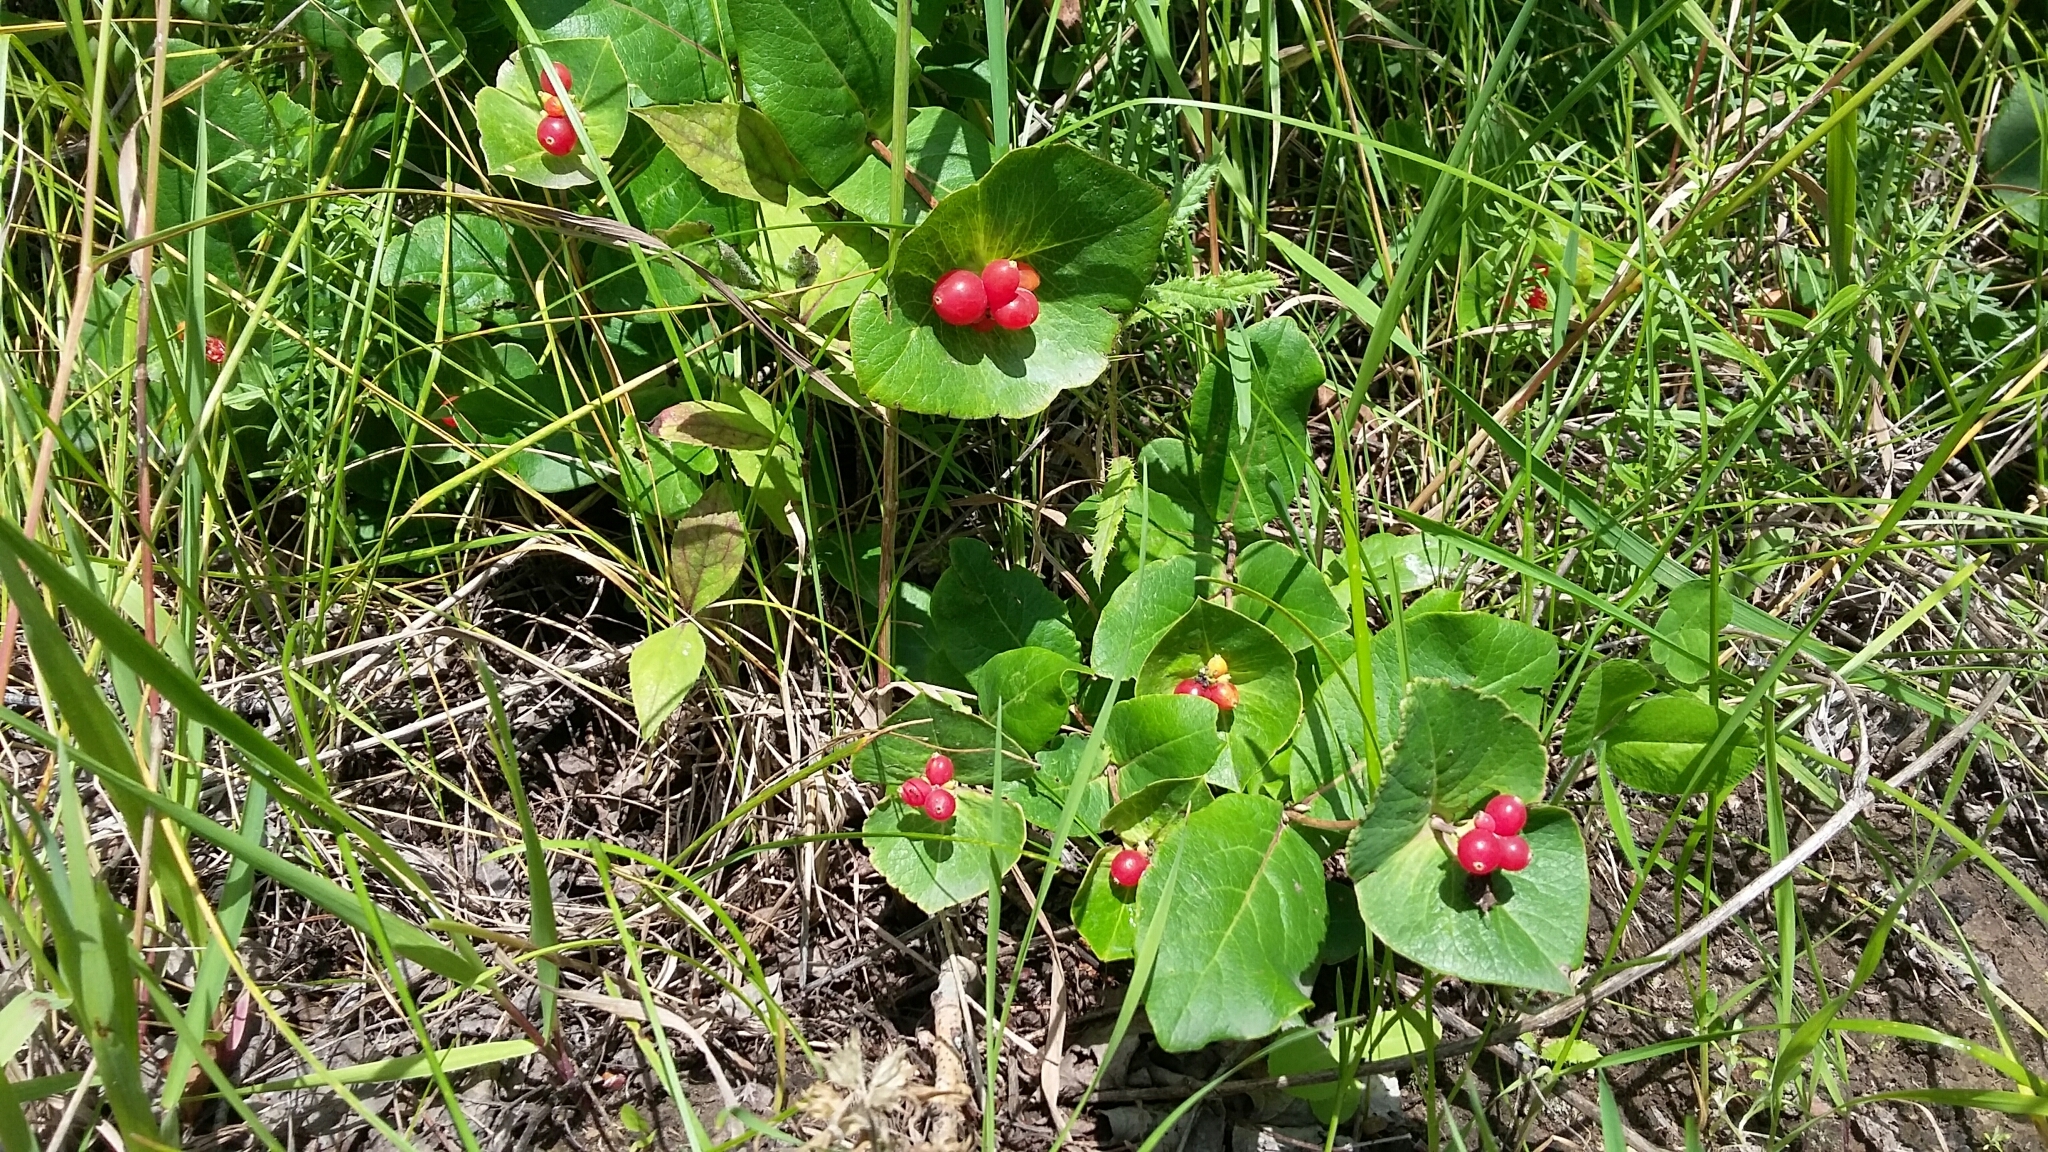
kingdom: Plantae
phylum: Tracheophyta
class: Magnoliopsida
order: Dipsacales
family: Caprifoliaceae
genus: Lonicera
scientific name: Lonicera dioica
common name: Limber honeysuckle
